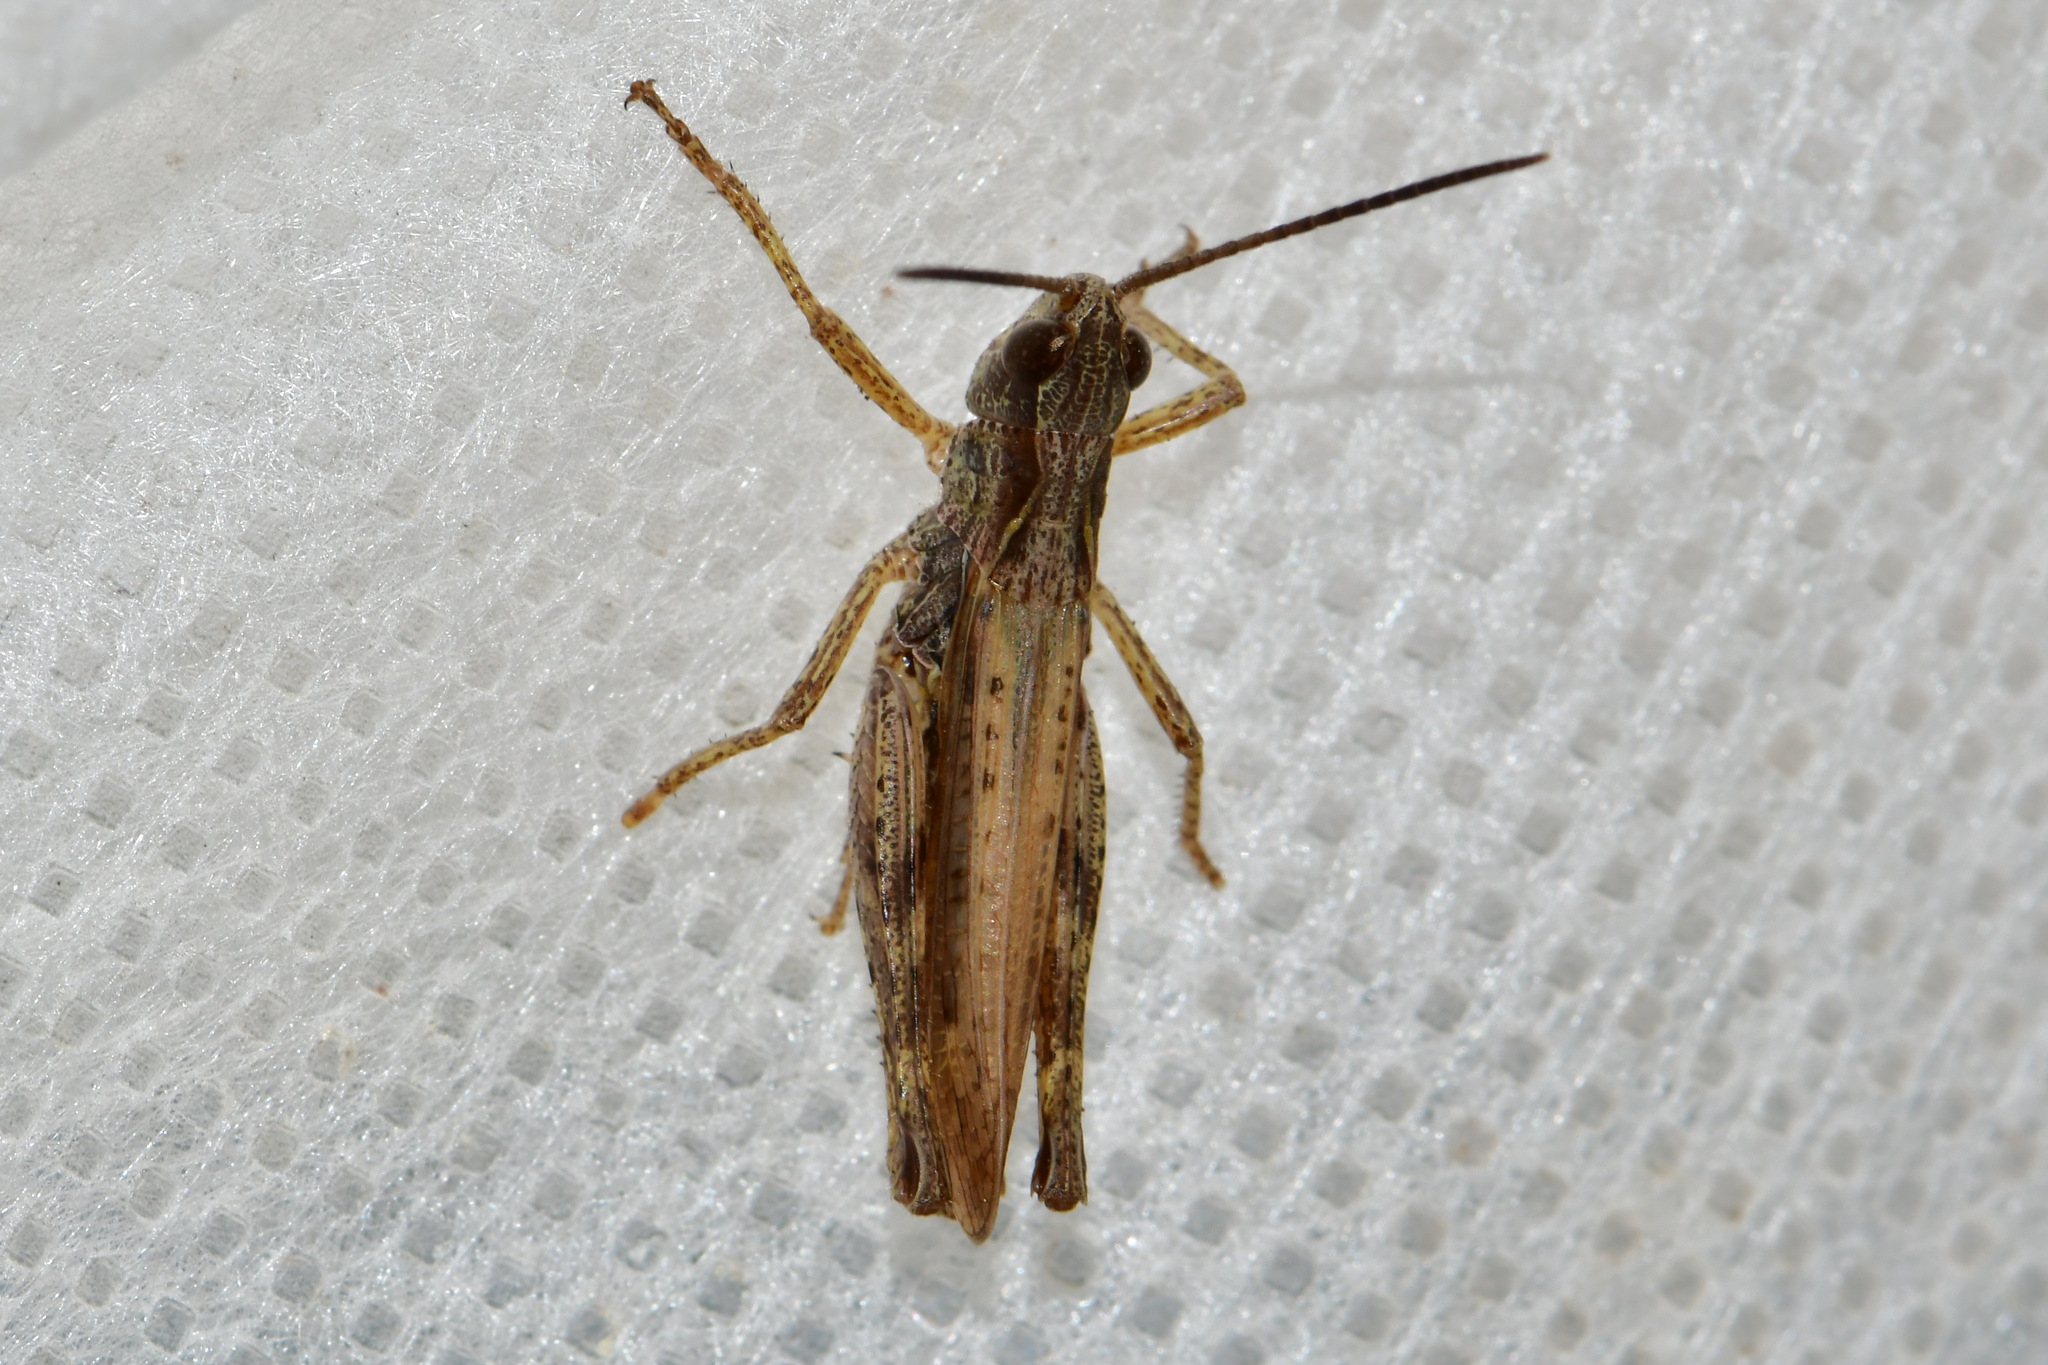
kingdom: Animalia
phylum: Arthropoda
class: Insecta
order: Orthoptera
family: Acrididae
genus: Chorthippus
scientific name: Chorthippus apricarius
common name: Upland field grasshopper
